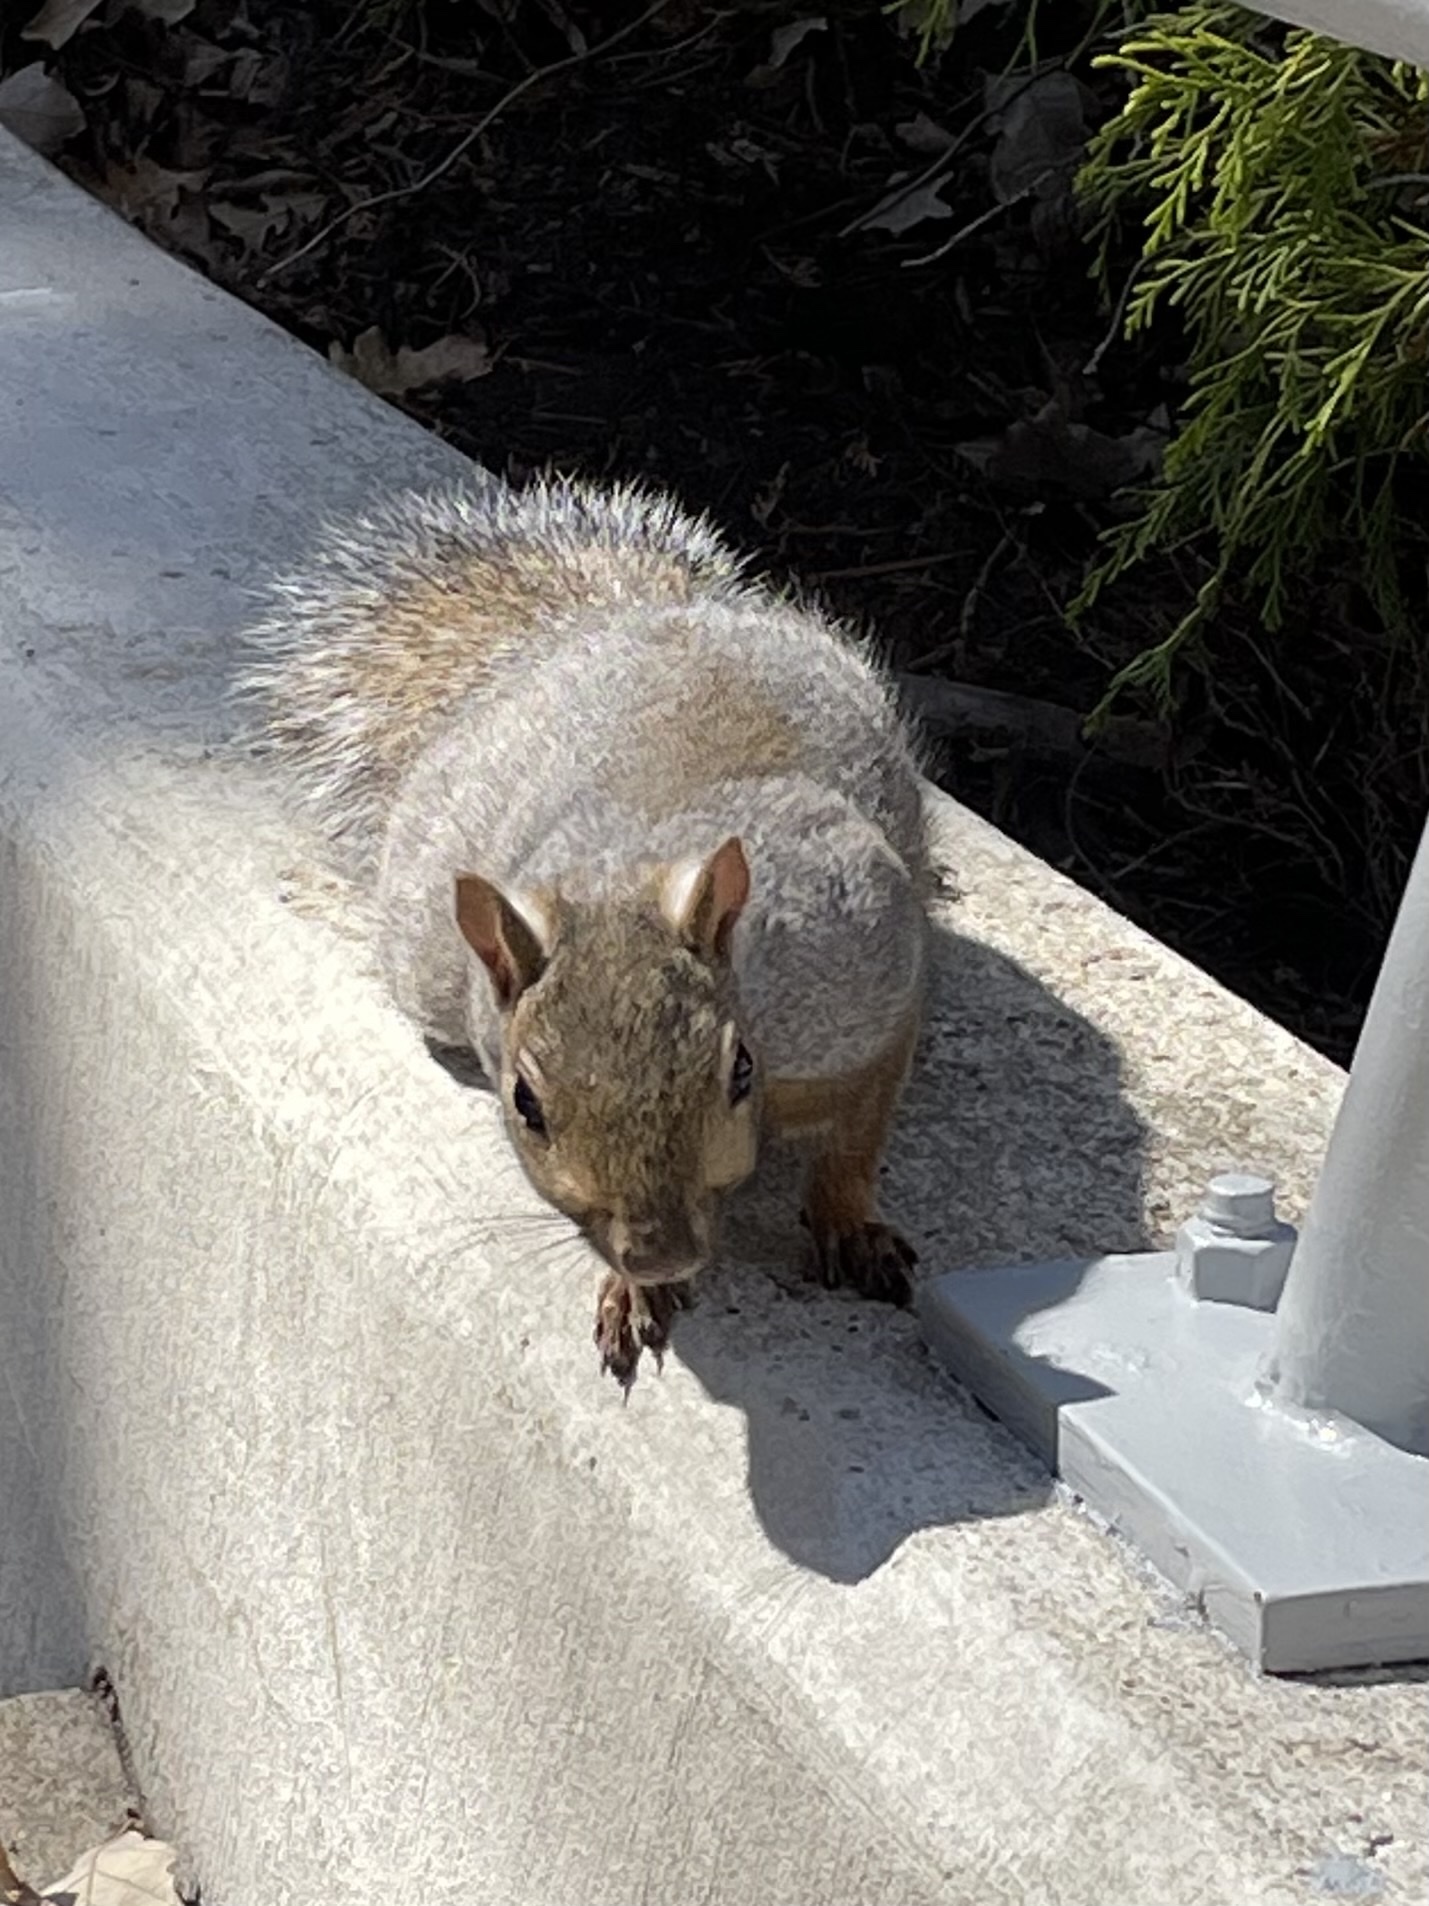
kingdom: Animalia
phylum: Chordata
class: Mammalia
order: Rodentia
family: Sciuridae
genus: Sciurus
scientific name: Sciurus carolinensis
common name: Eastern gray squirrel
